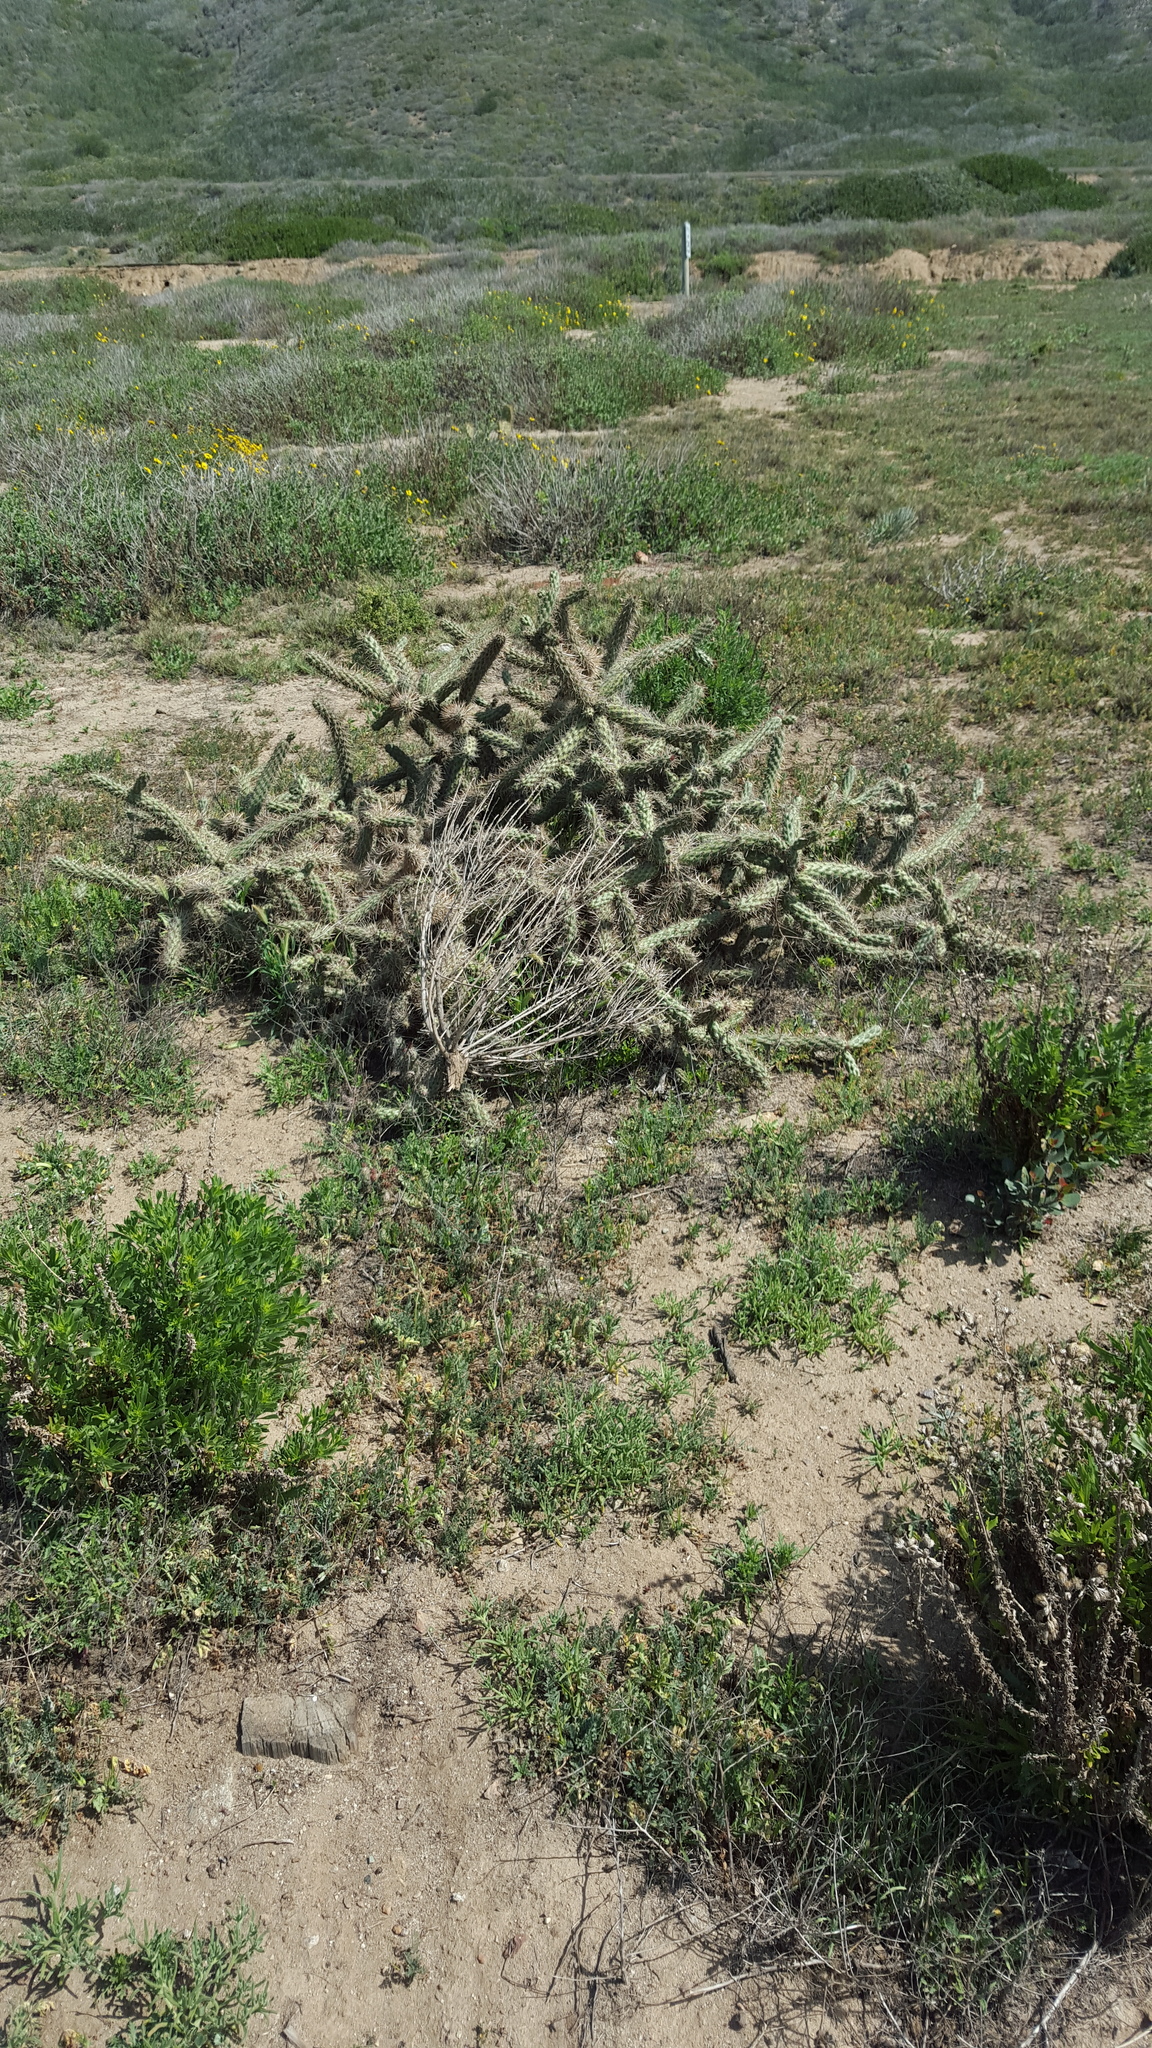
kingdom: Plantae
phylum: Tracheophyta
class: Magnoliopsida
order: Caryophyllales
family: Cactaceae
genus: Cylindropuntia
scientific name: Cylindropuntia prolifera
